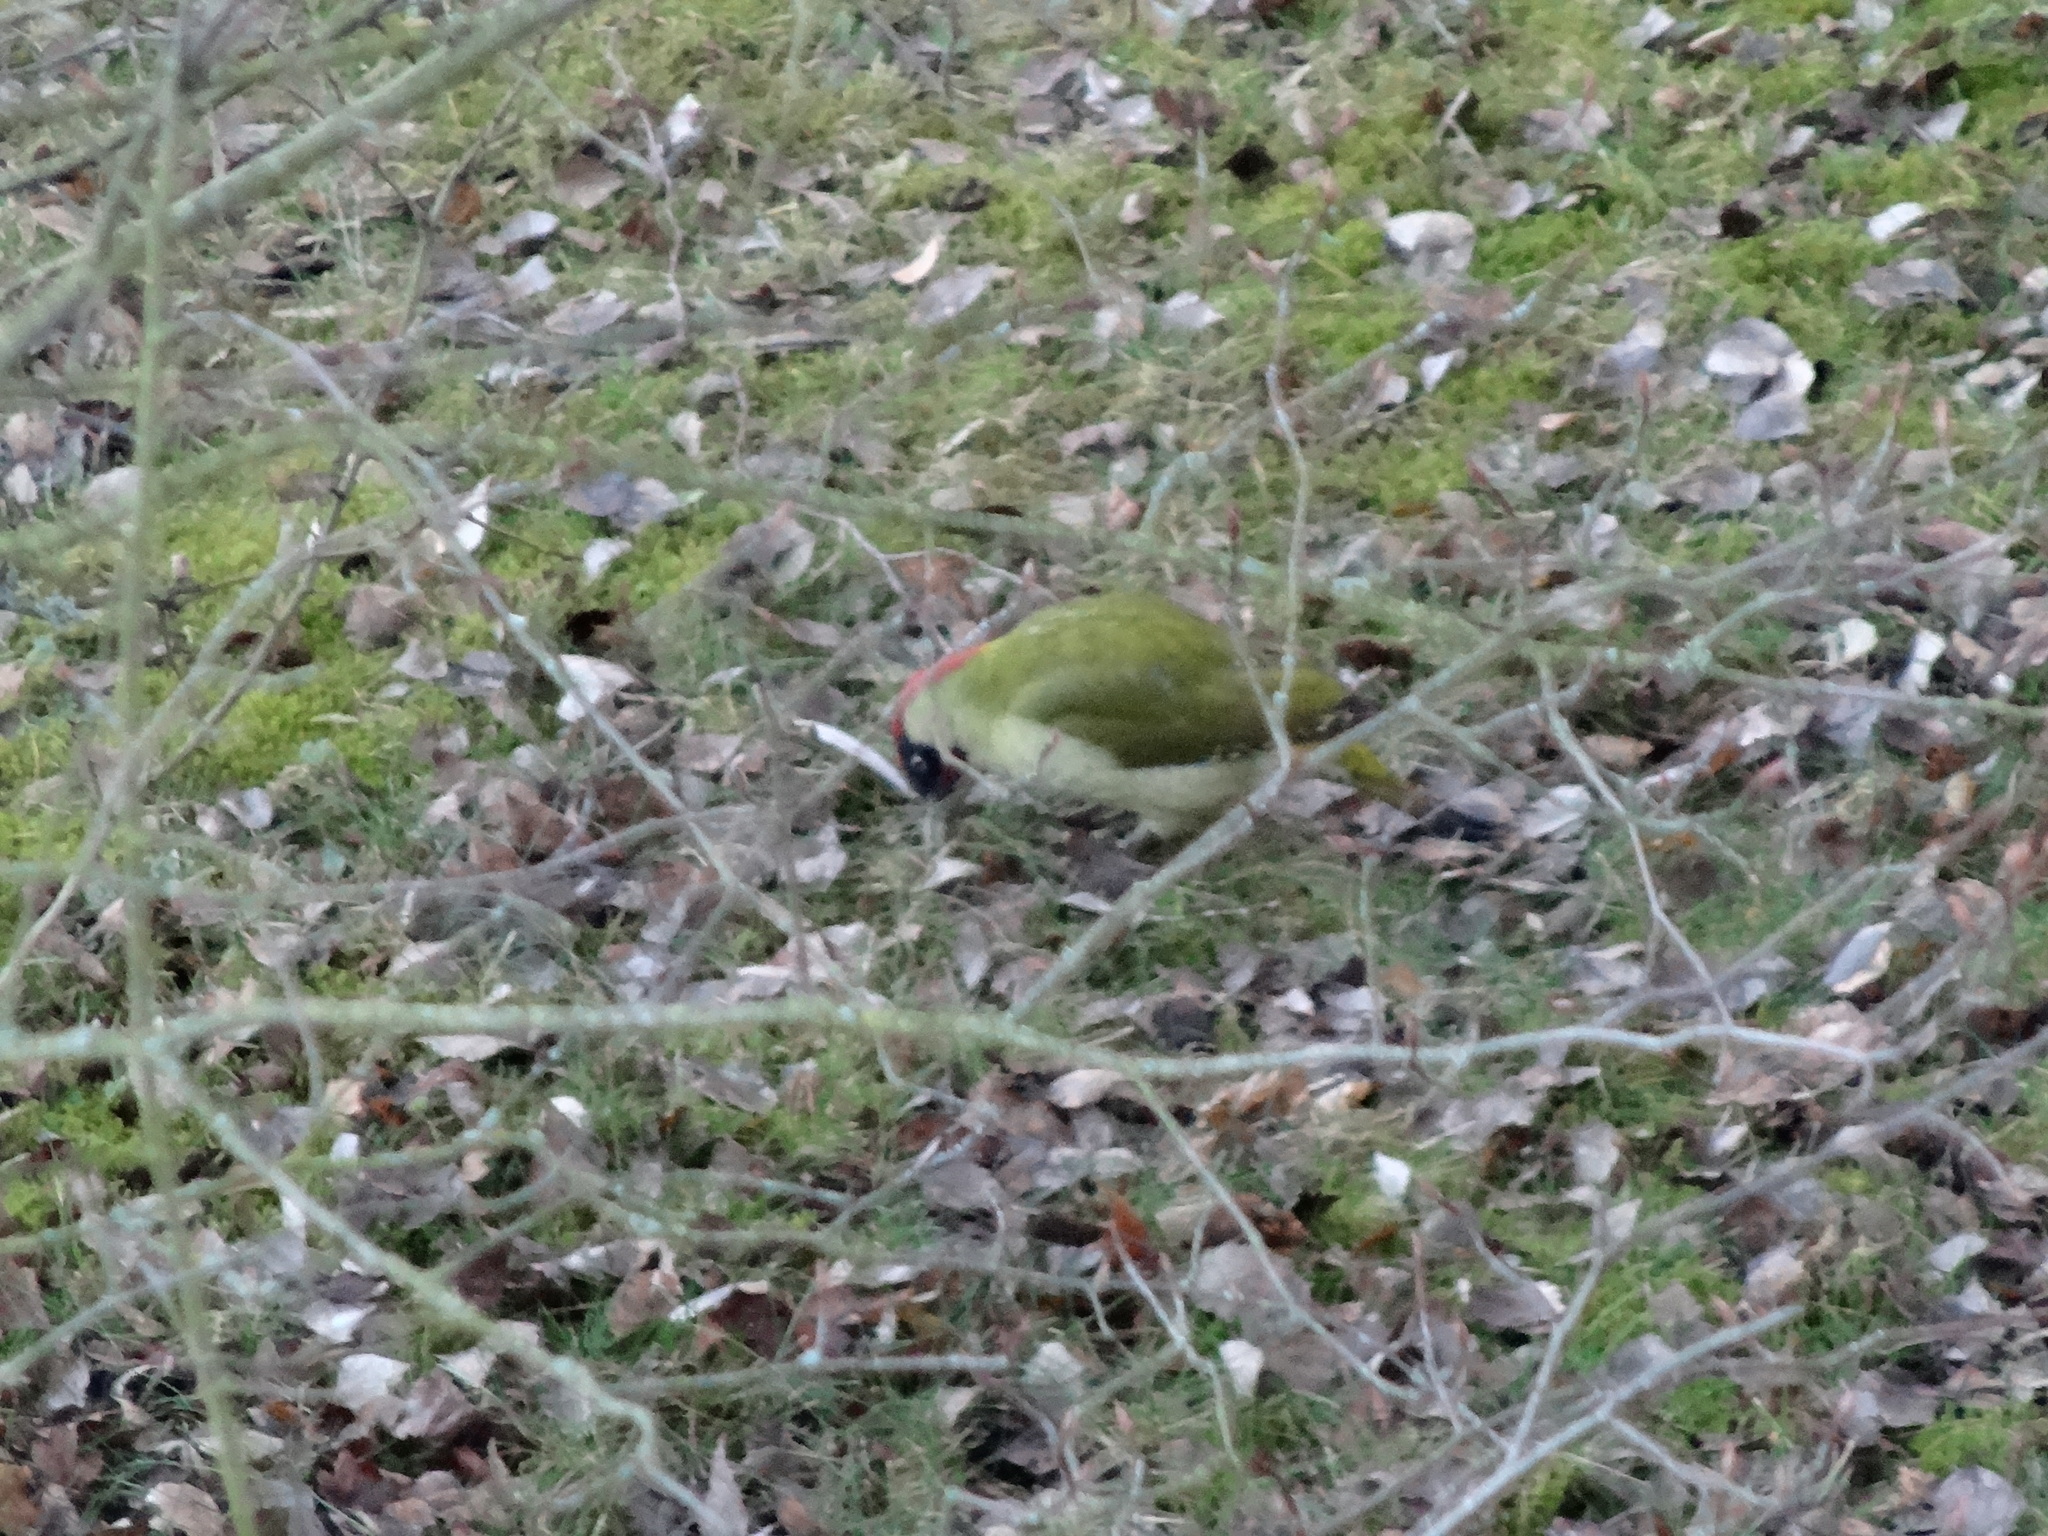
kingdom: Animalia
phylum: Chordata
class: Aves
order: Piciformes
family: Picidae
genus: Picus
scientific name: Picus viridis
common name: European green woodpecker
